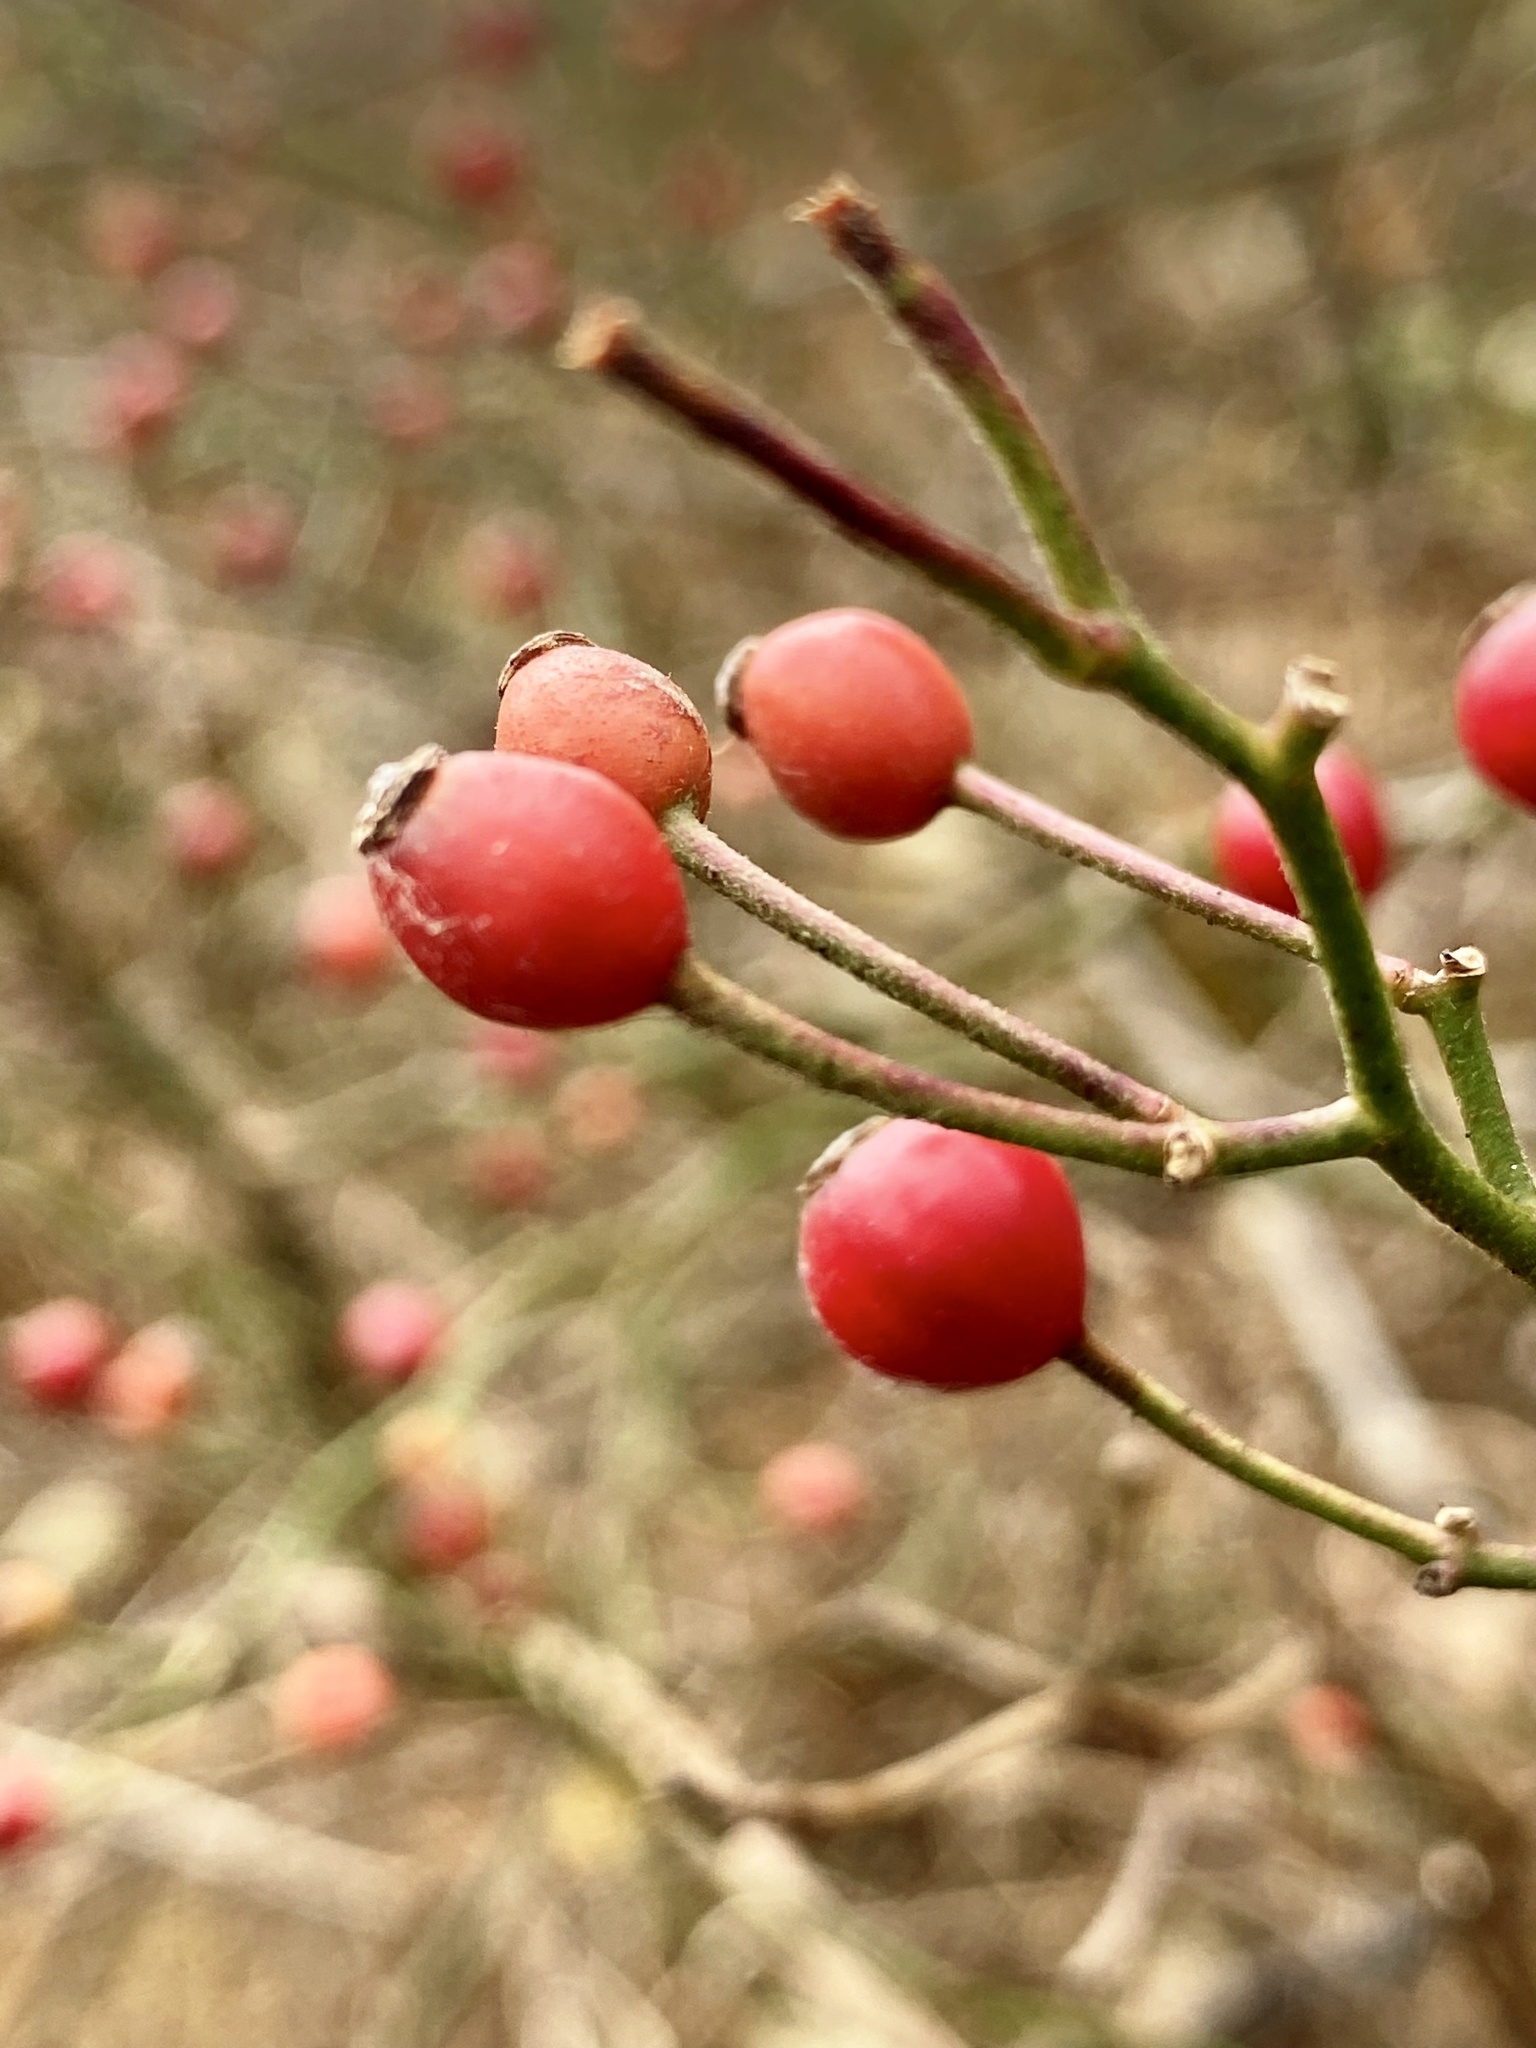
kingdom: Plantae
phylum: Tracheophyta
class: Magnoliopsida
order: Rosales
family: Rosaceae
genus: Rosa
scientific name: Rosa multiflora
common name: Multiflora rose
